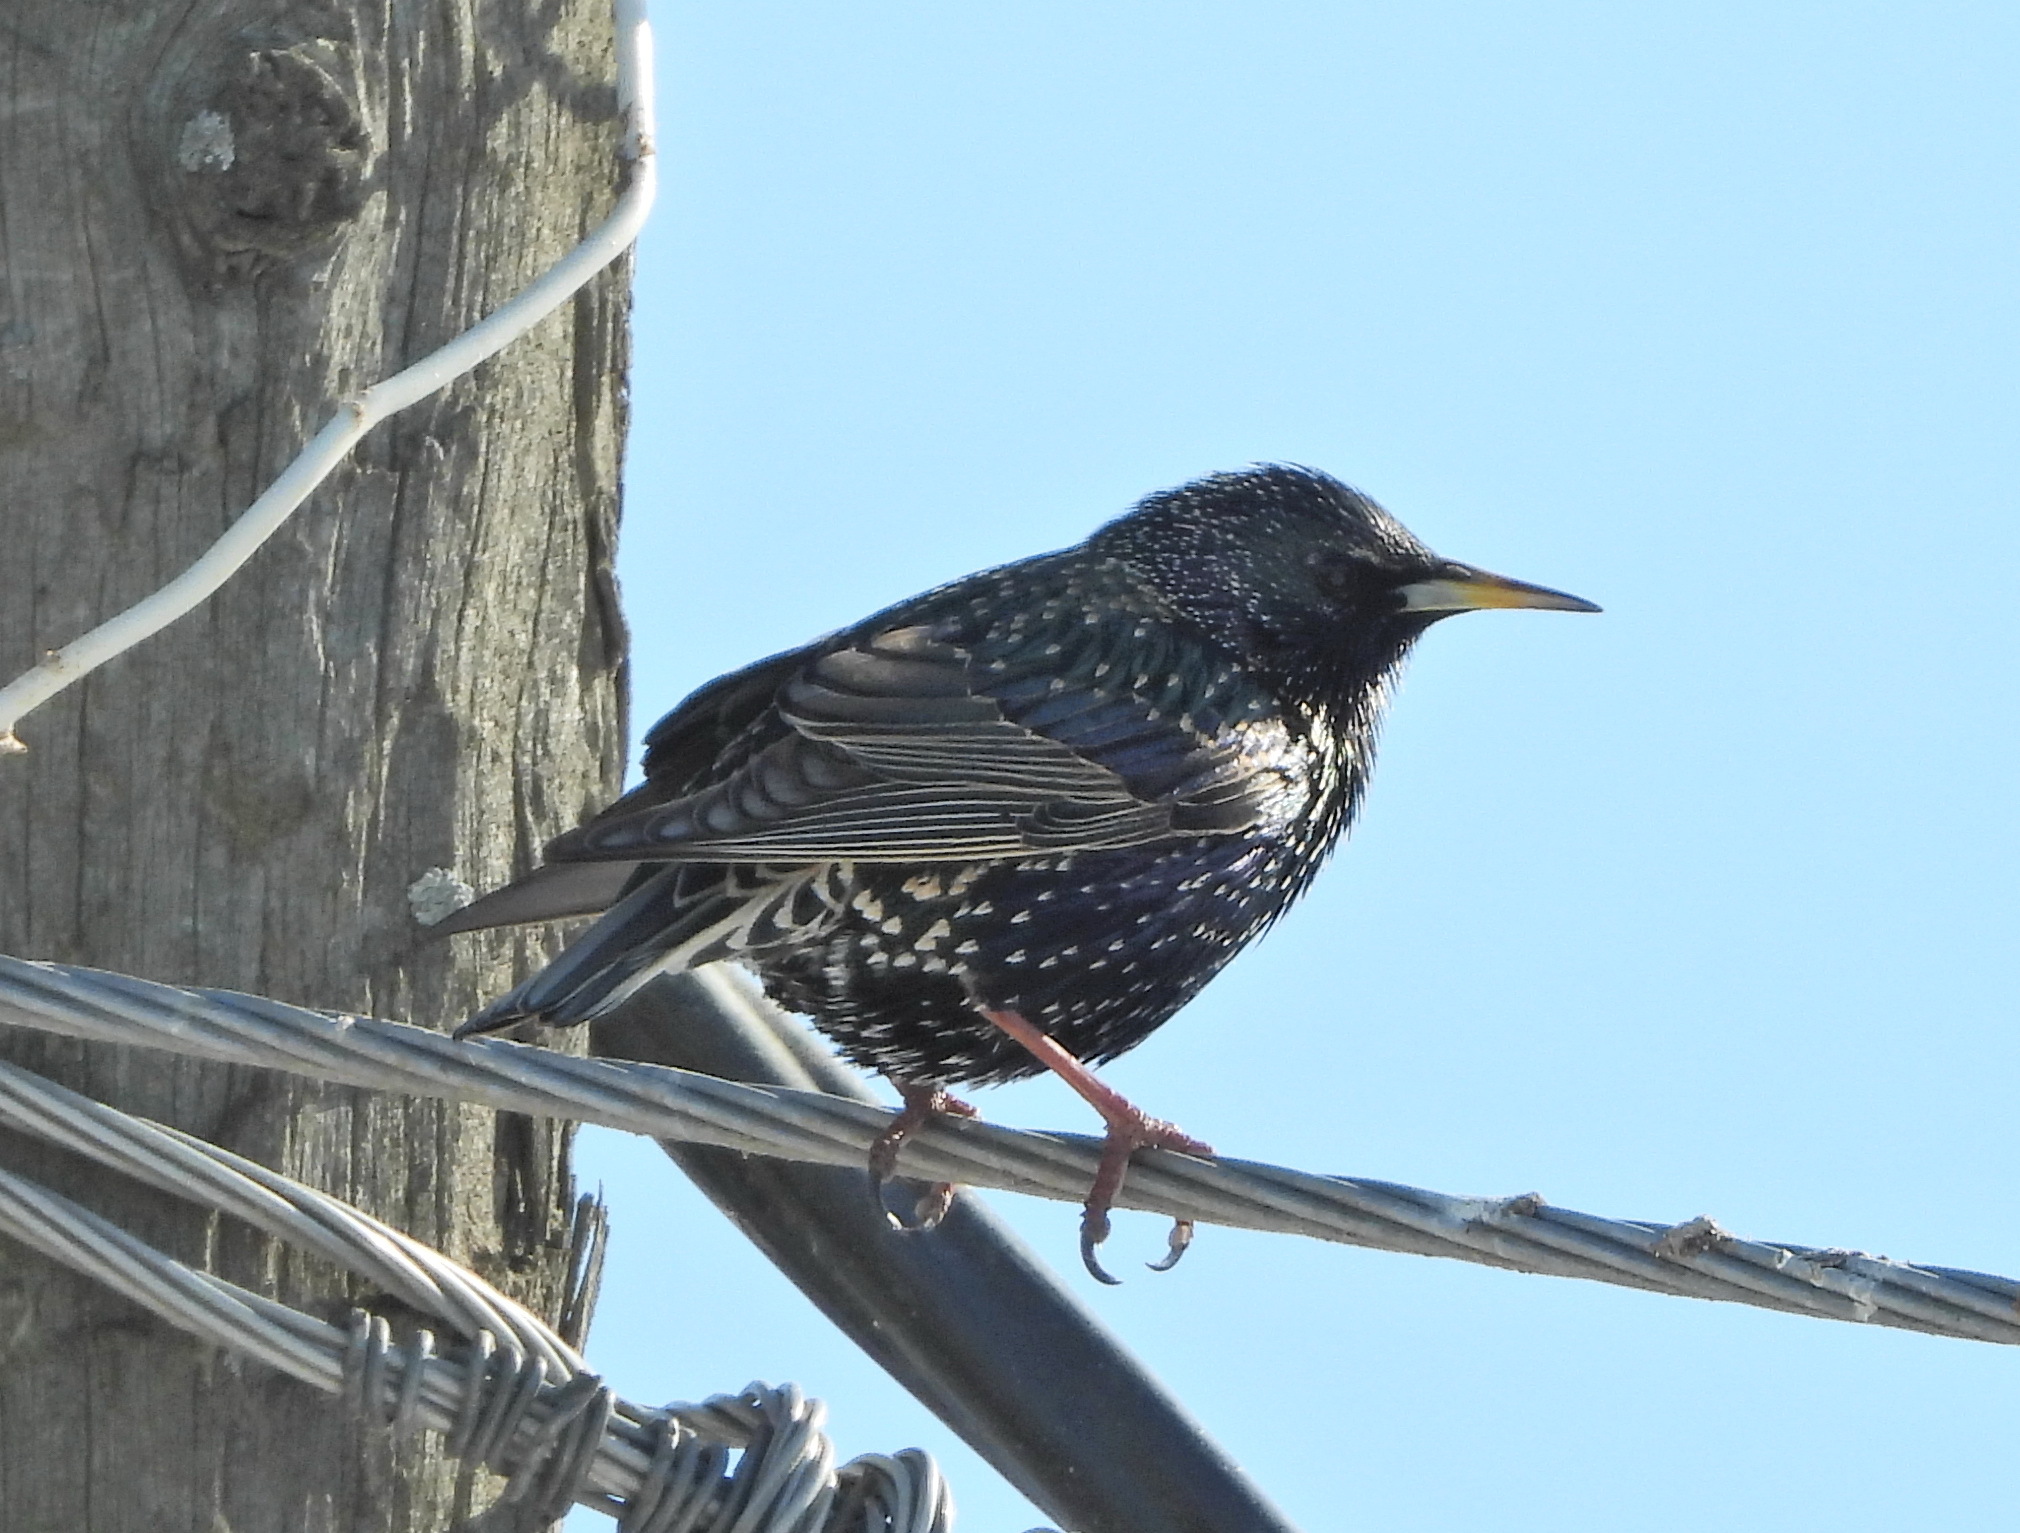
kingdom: Animalia
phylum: Chordata
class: Aves
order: Passeriformes
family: Sturnidae
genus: Sturnus
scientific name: Sturnus vulgaris
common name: Common starling
